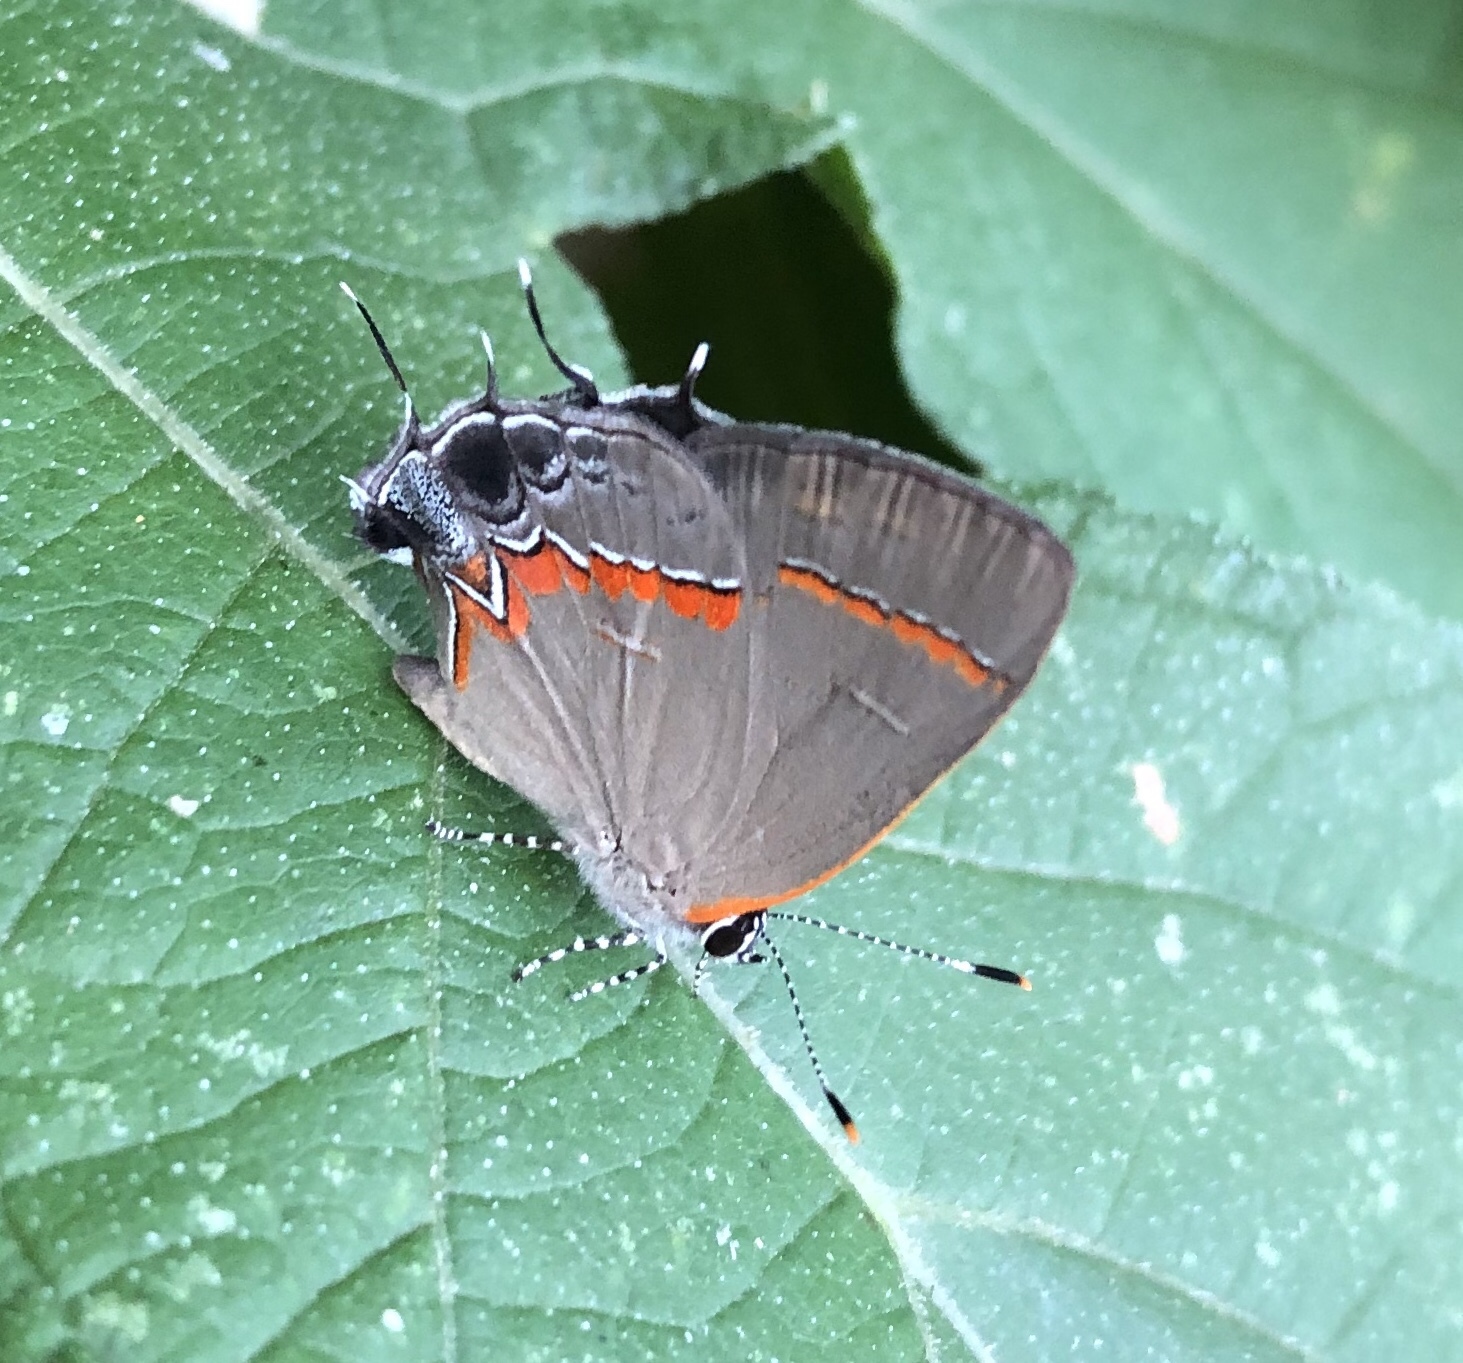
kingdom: Animalia
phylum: Arthropoda
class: Insecta
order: Lepidoptera
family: Lycaenidae
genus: Calycopis
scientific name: Calycopis cecrops
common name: Red-banded hairstreak
